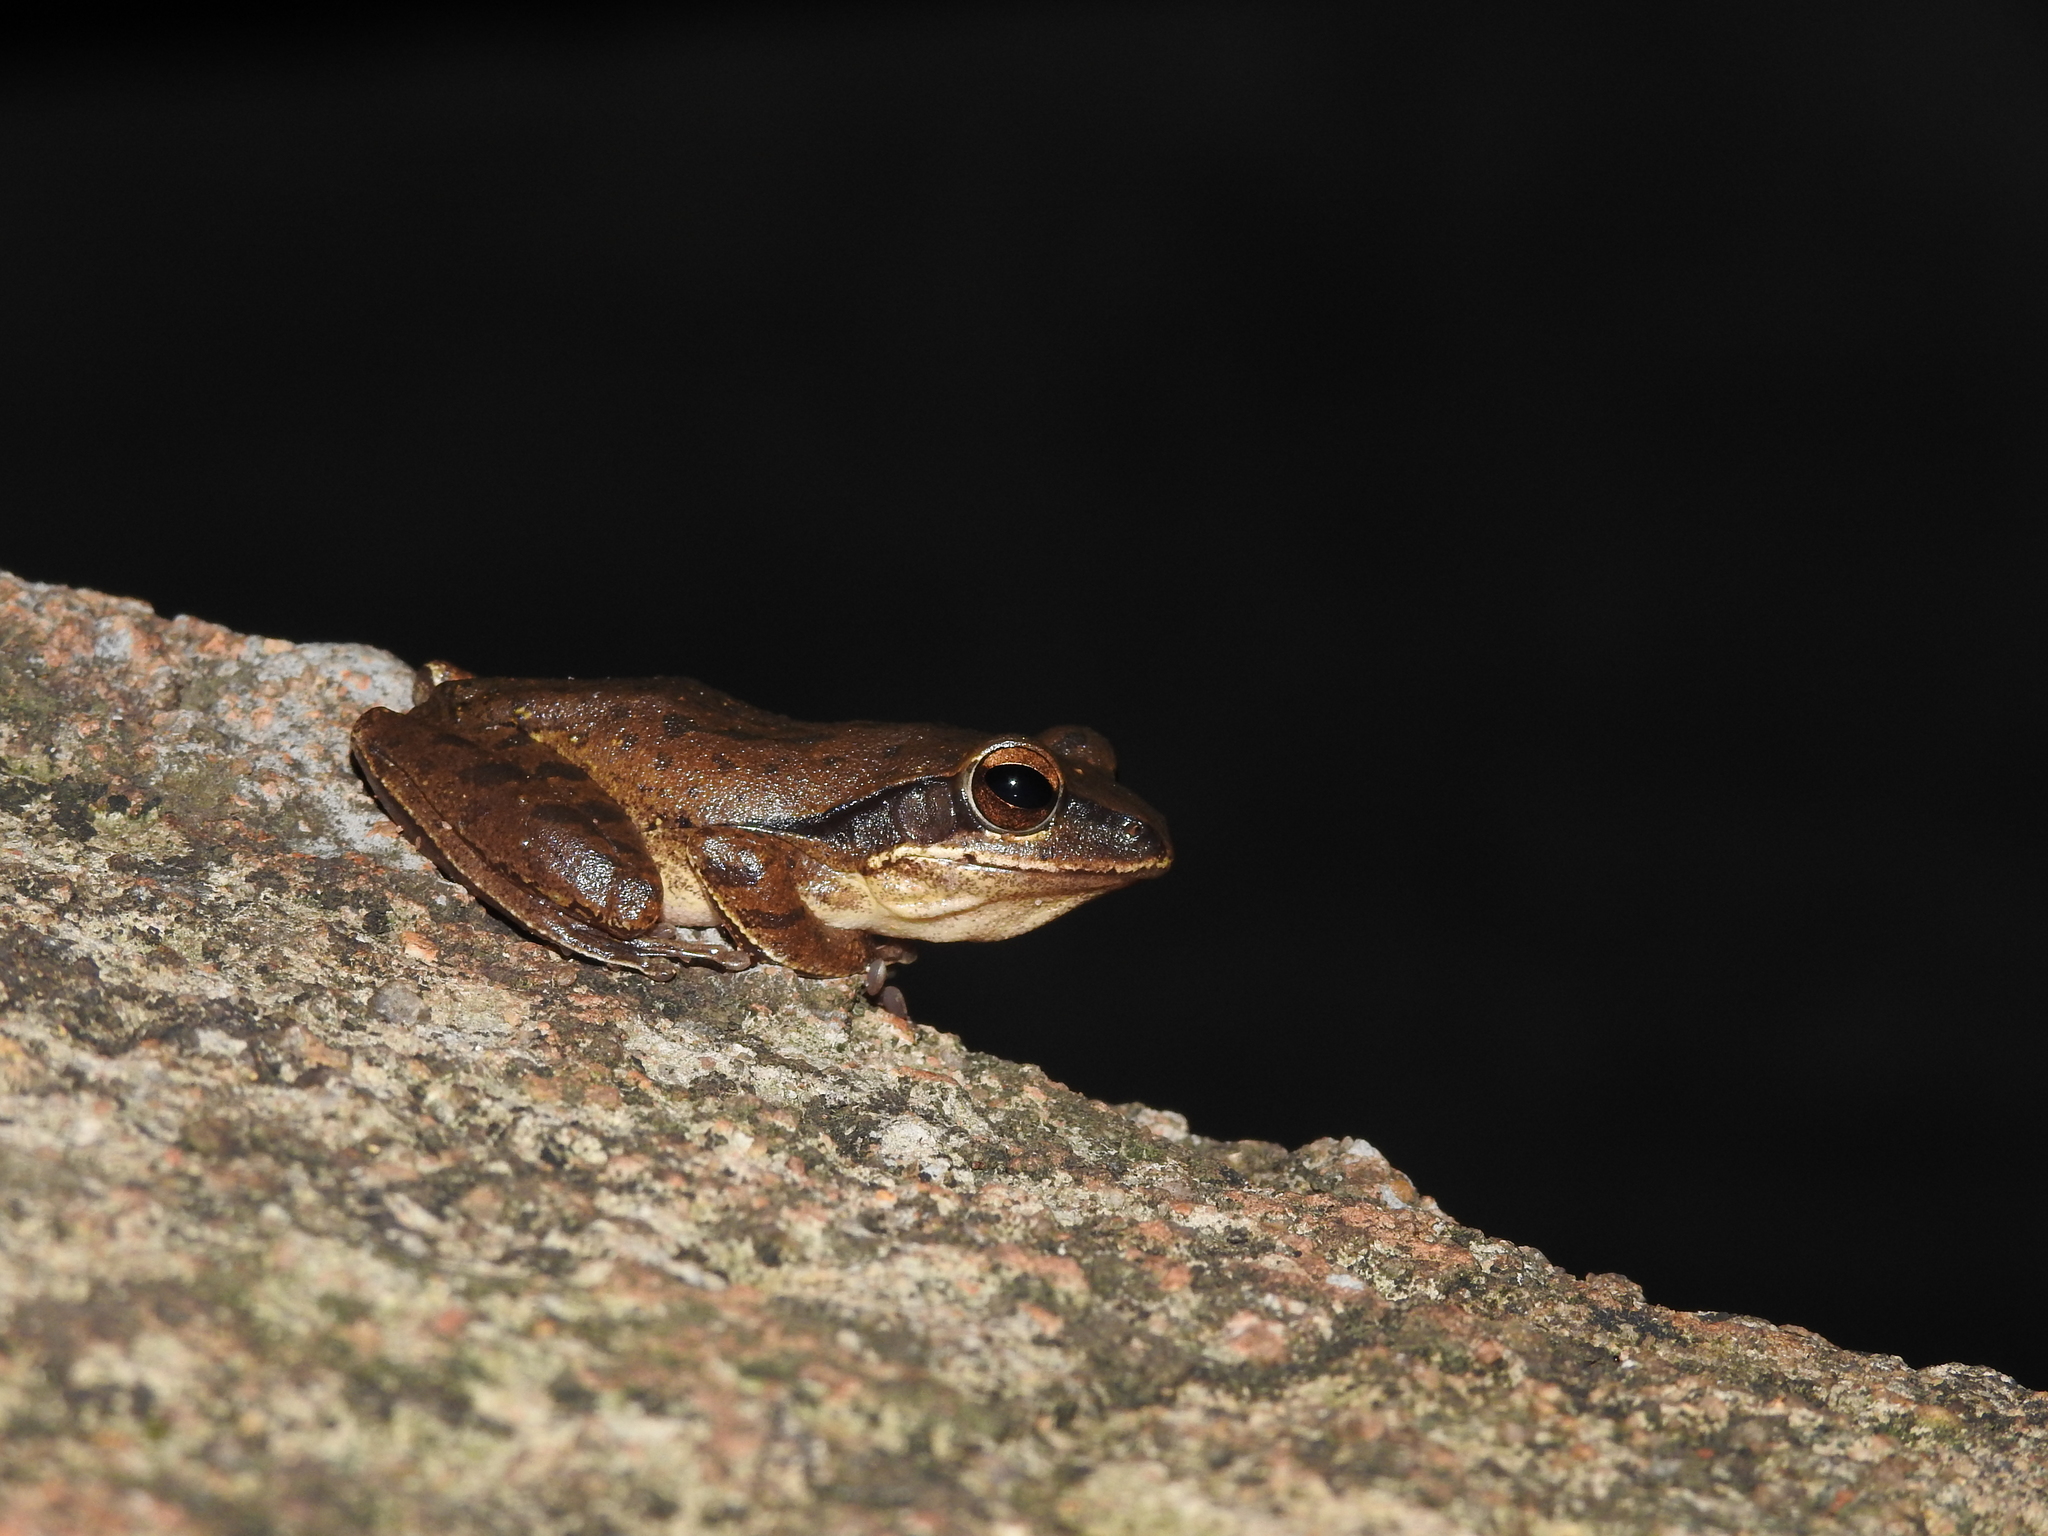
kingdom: Animalia
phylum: Chordata
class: Amphibia
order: Anura
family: Rhacophoridae
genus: Polypedates
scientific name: Polypedates maculatus
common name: Himalayan tree frog
